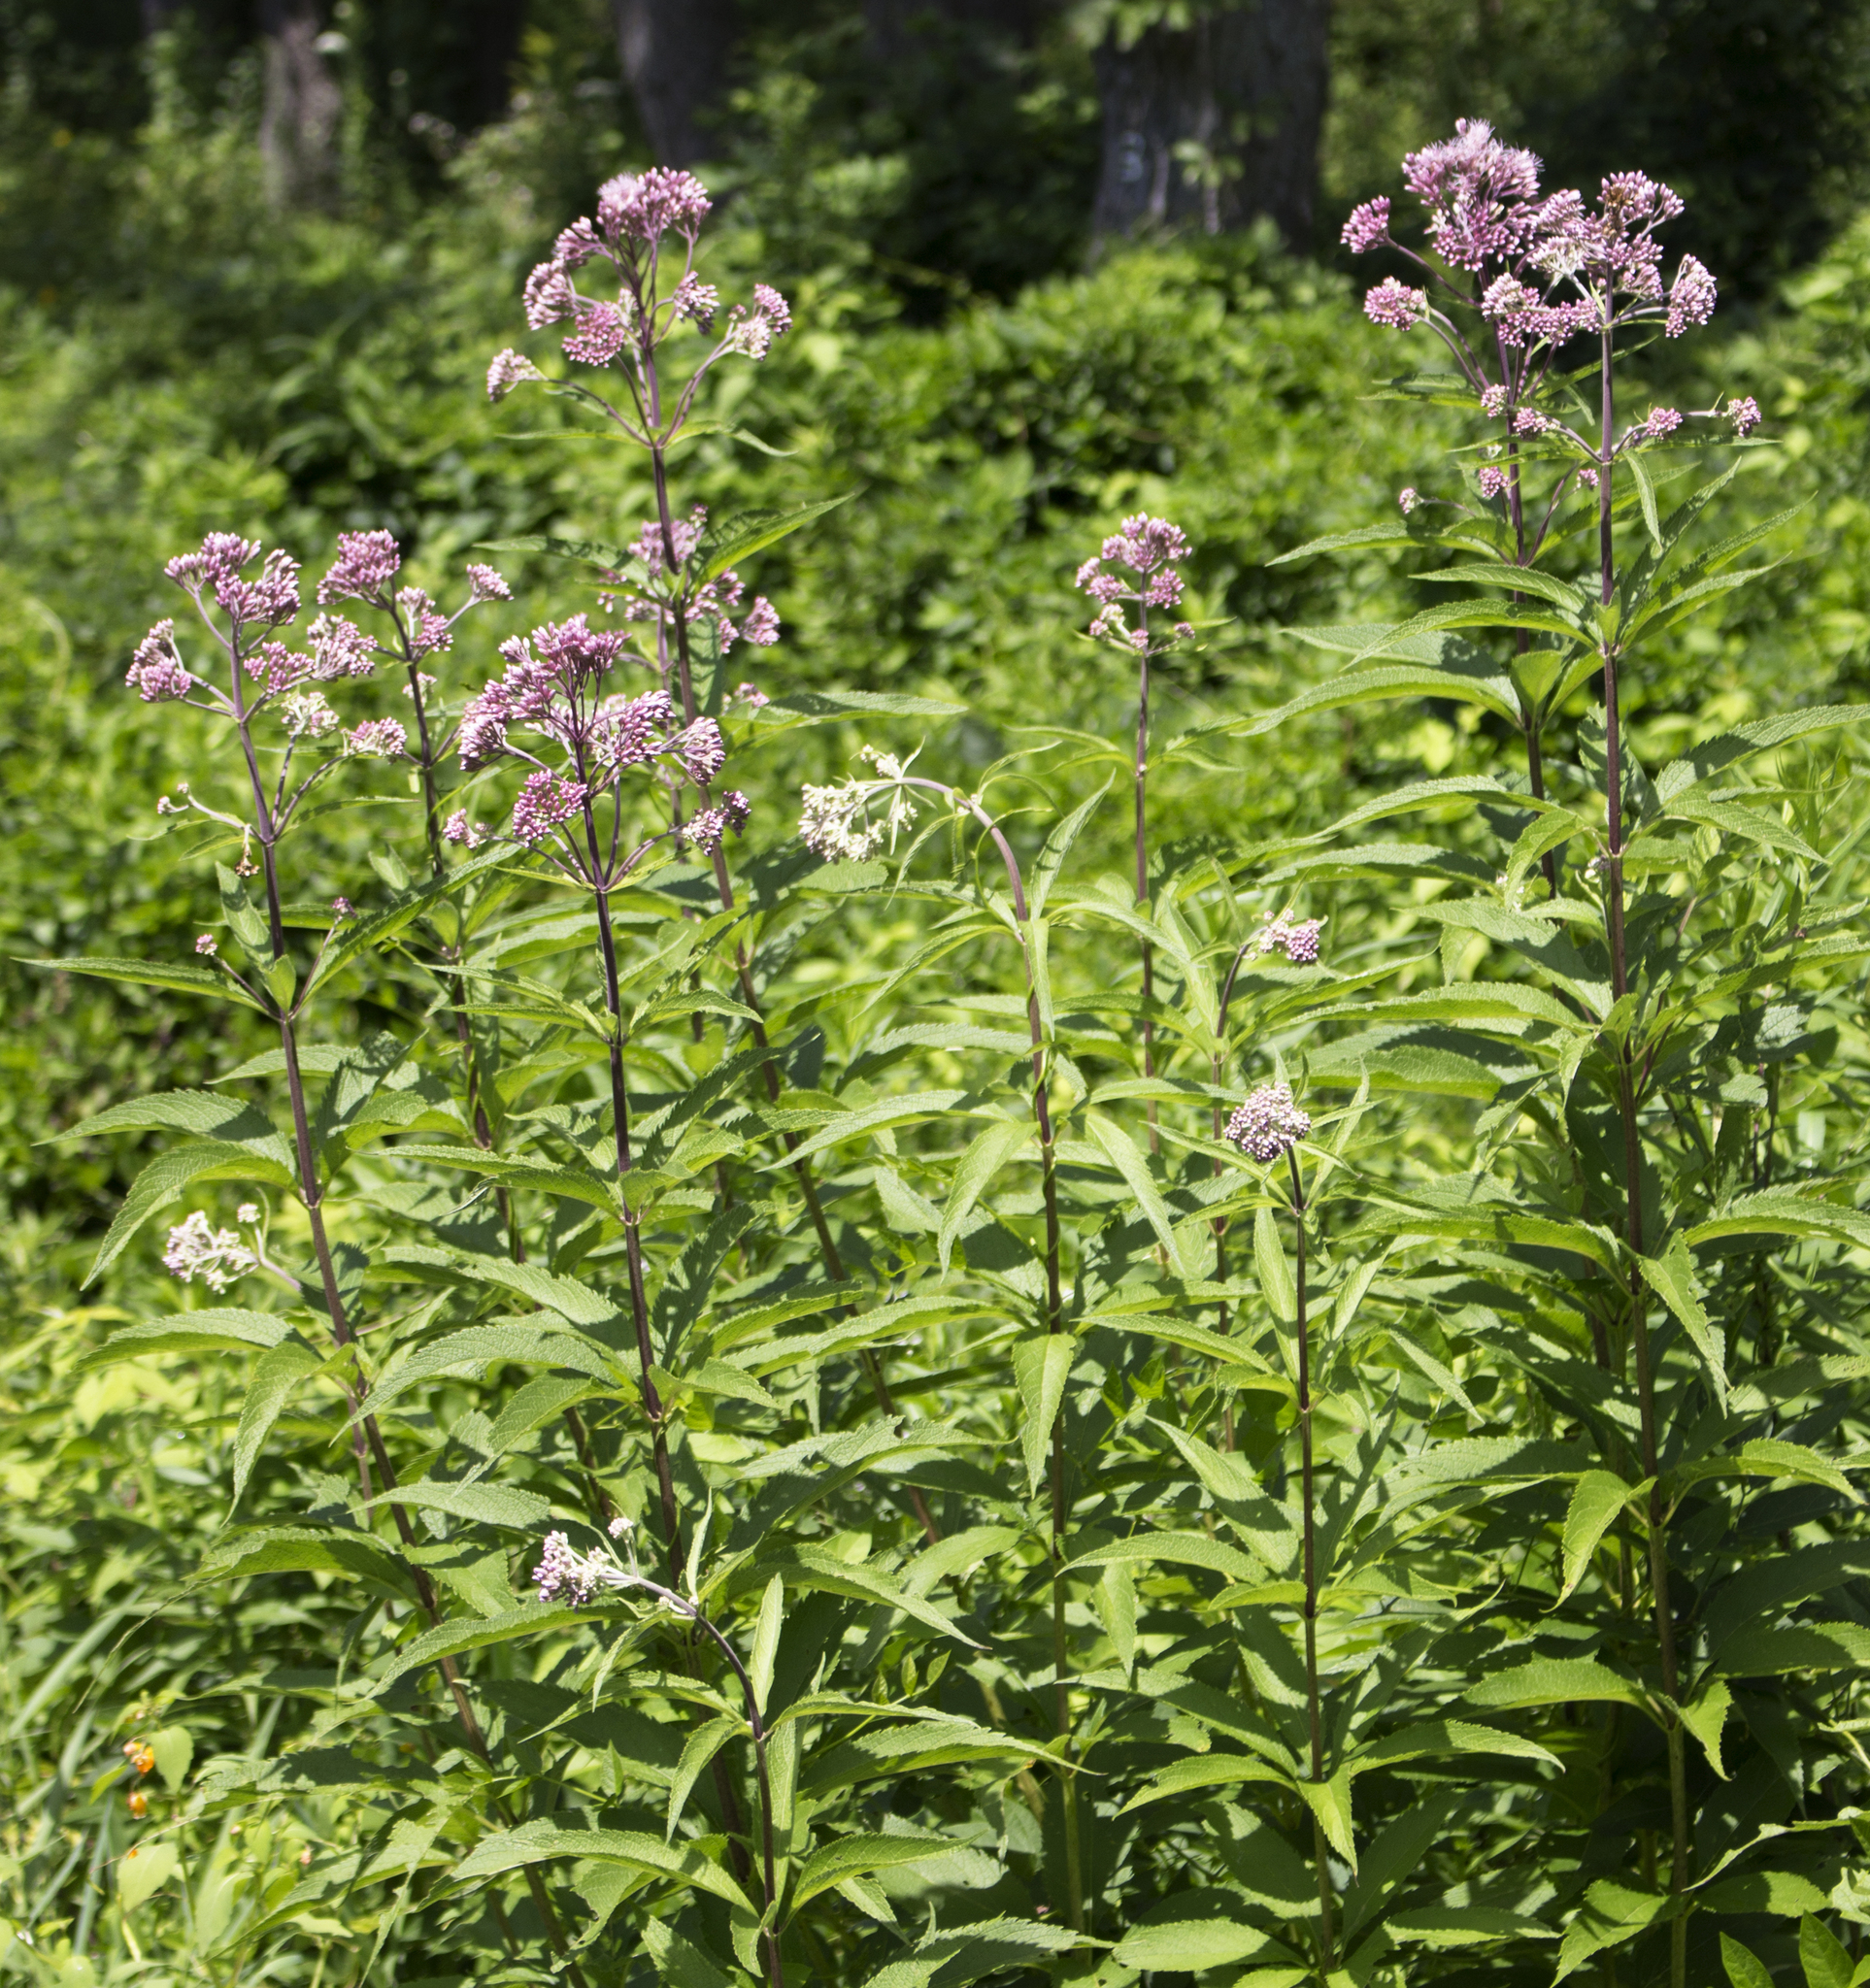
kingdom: Plantae
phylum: Tracheophyta
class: Magnoliopsida
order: Asterales
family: Asteraceae
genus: Eutrochium
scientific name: Eutrochium maculatum
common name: Spotted joe pye weed
